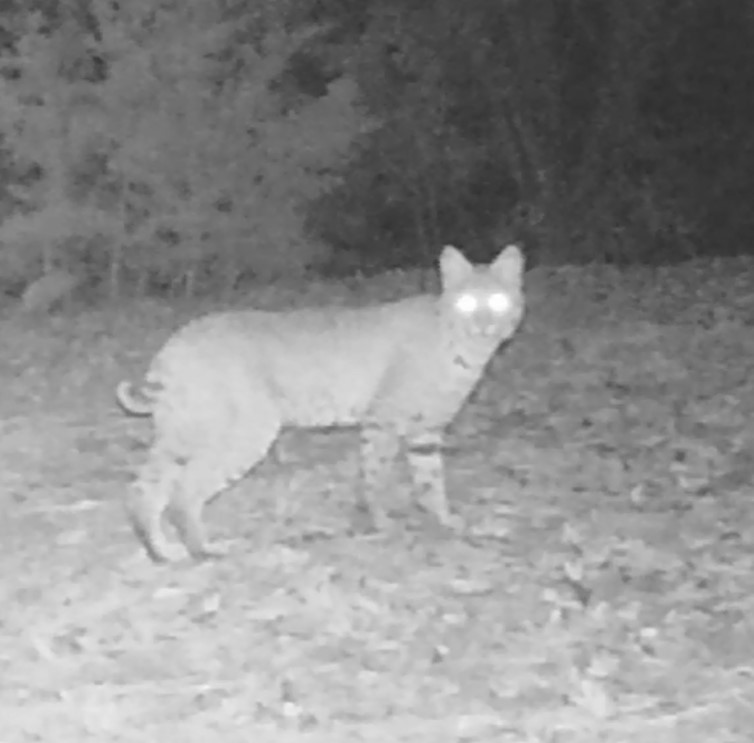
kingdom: Animalia
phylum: Chordata
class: Mammalia
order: Carnivora
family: Felidae
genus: Lynx
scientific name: Lynx rufus
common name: Bobcat
